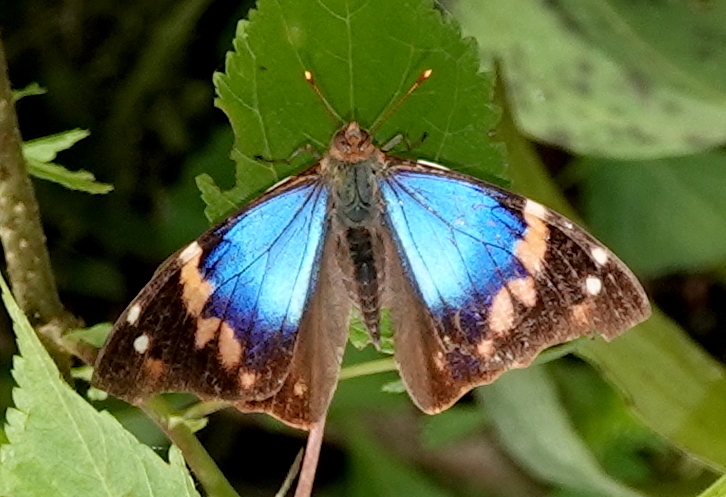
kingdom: Animalia
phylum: Arthropoda
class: Insecta
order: Lepidoptera
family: Nymphalidae
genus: Epiphile
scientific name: Epiphile epimenes
